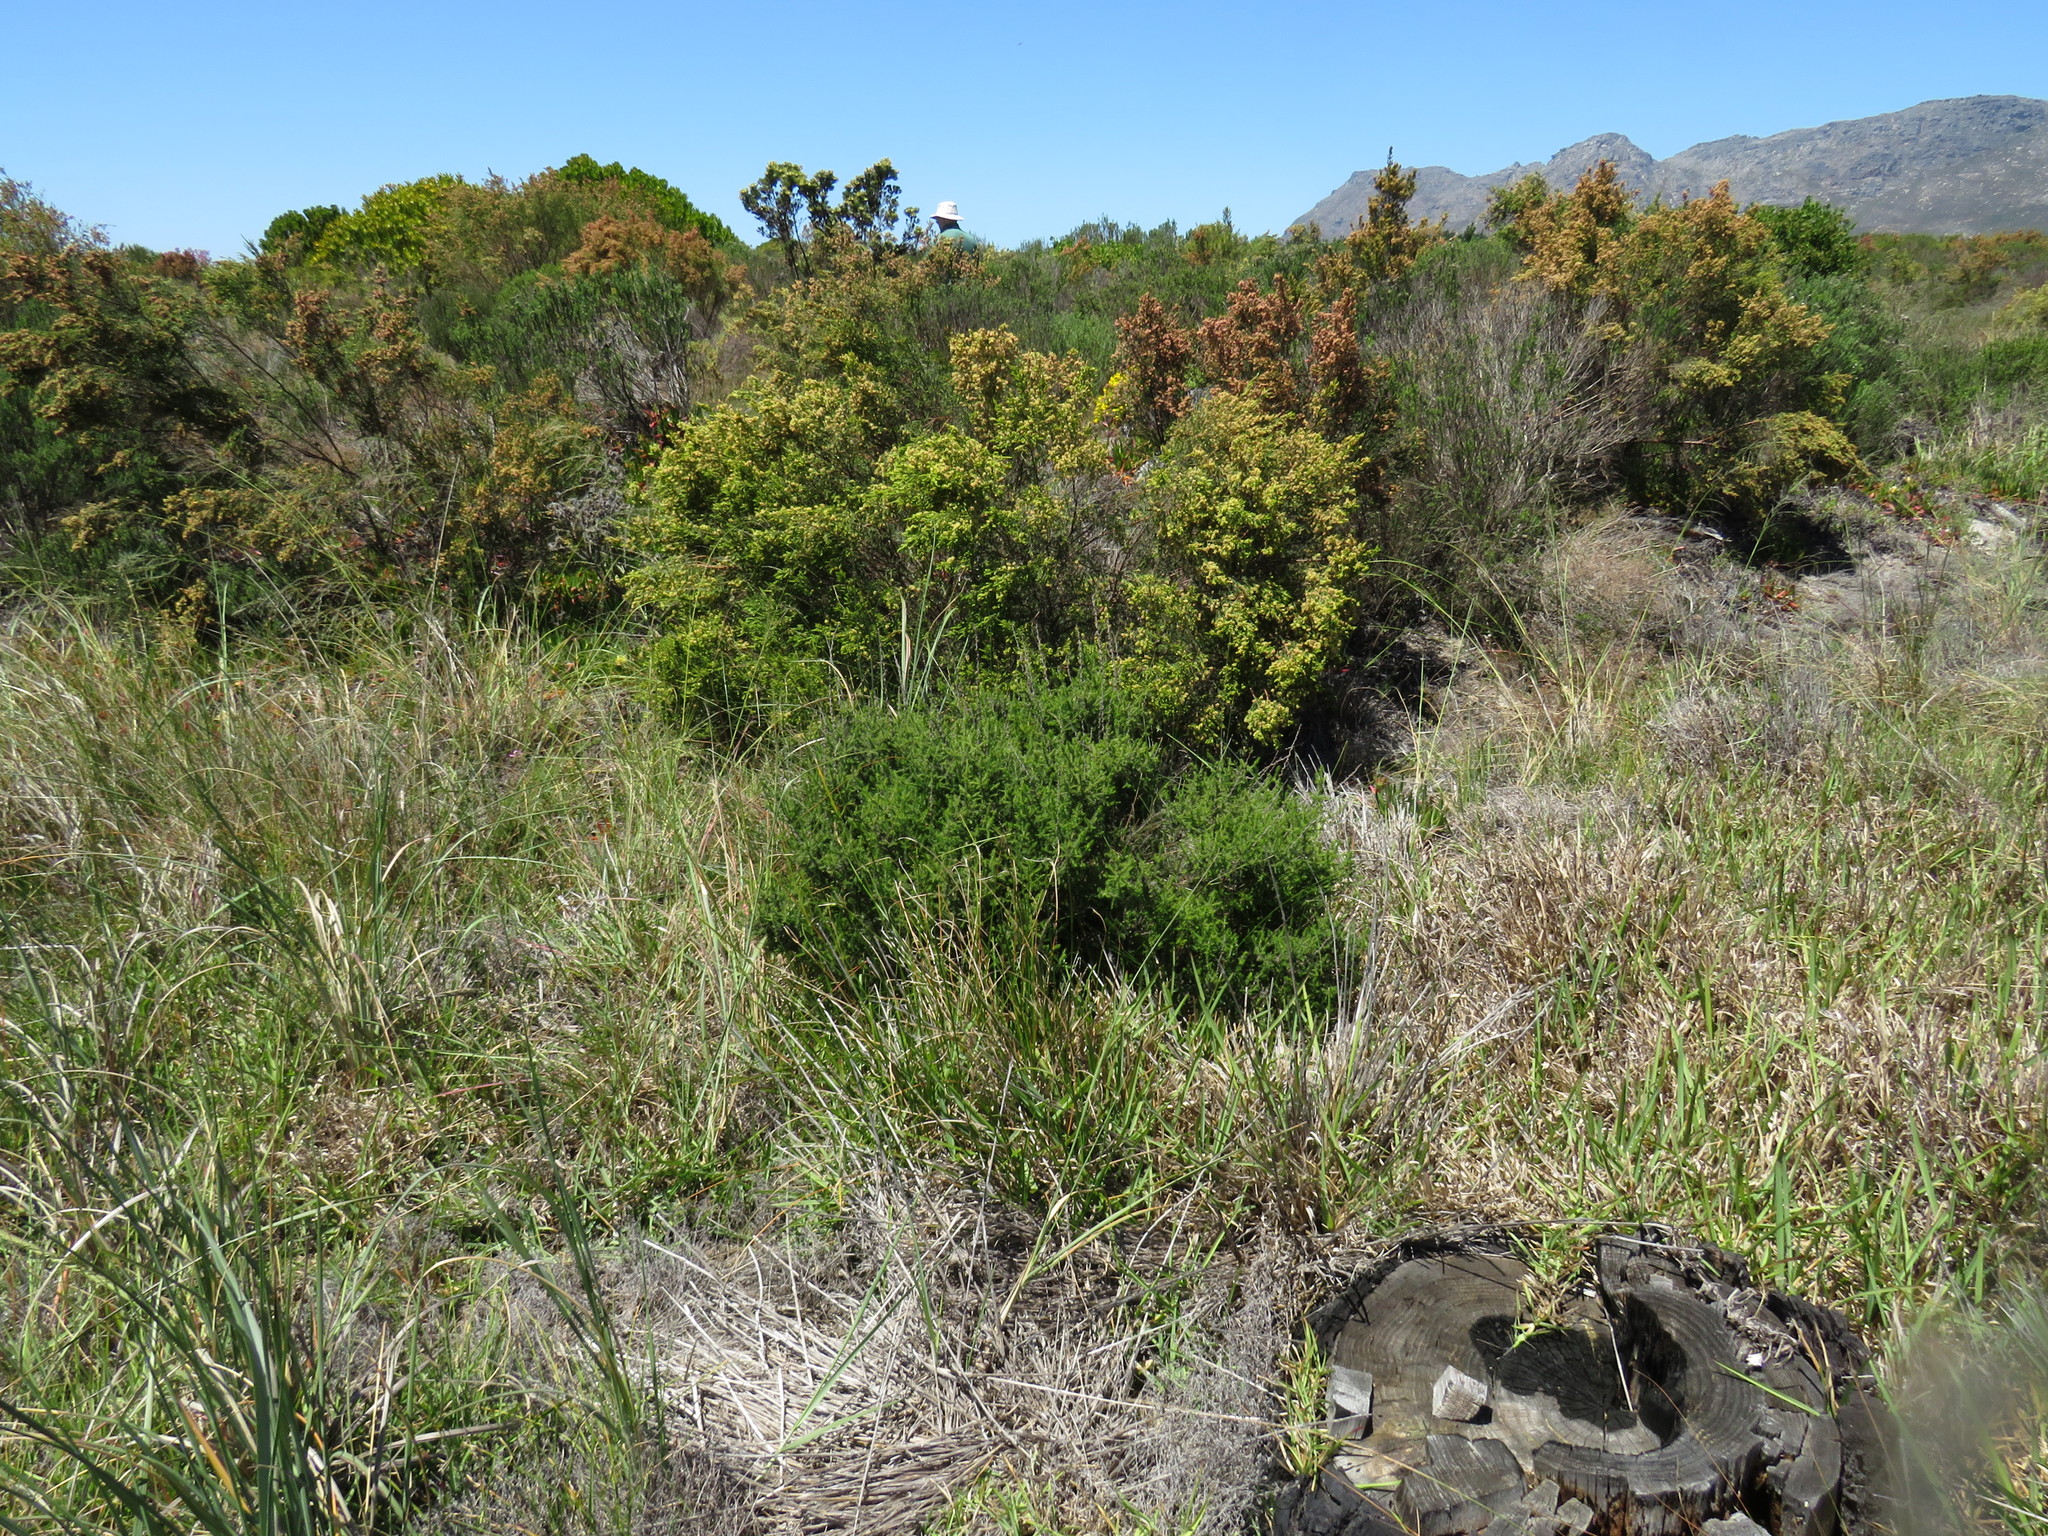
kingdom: Plantae
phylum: Tracheophyta
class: Magnoliopsida
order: Asterales
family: Asteraceae
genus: Seriphium
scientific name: Seriphium cinereum
